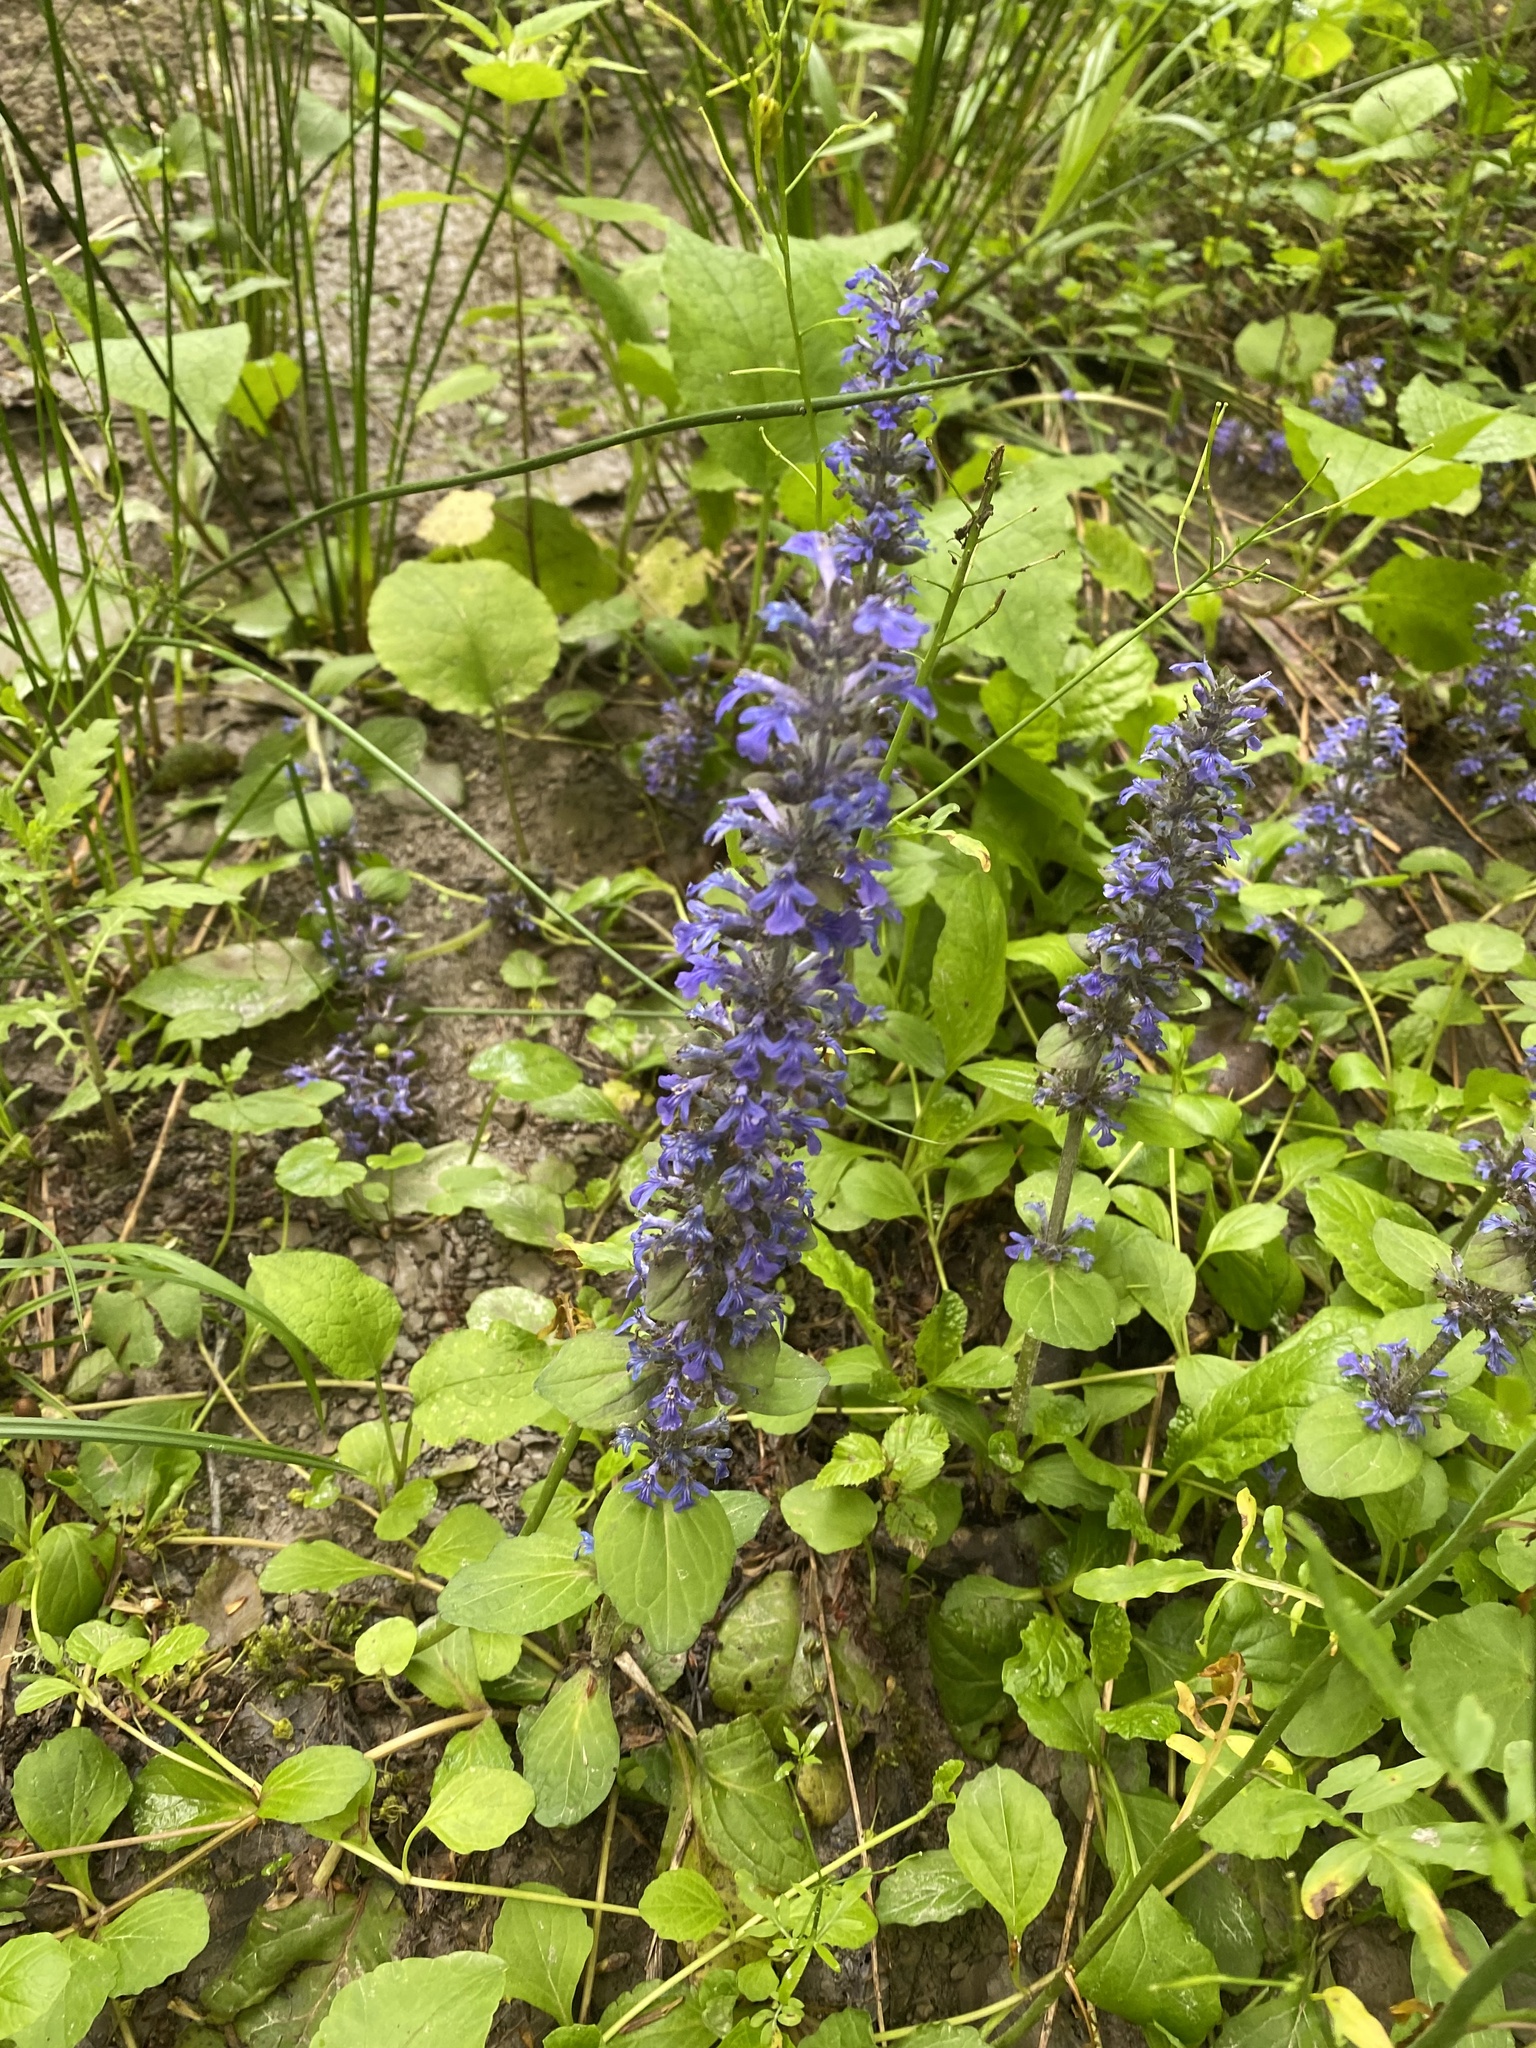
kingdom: Plantae
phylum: Tracheophyta
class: Magnoliopsida
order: Lamiales
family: Lamiaceae
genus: Ajuga
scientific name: Ajuga reptans
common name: Bugle
